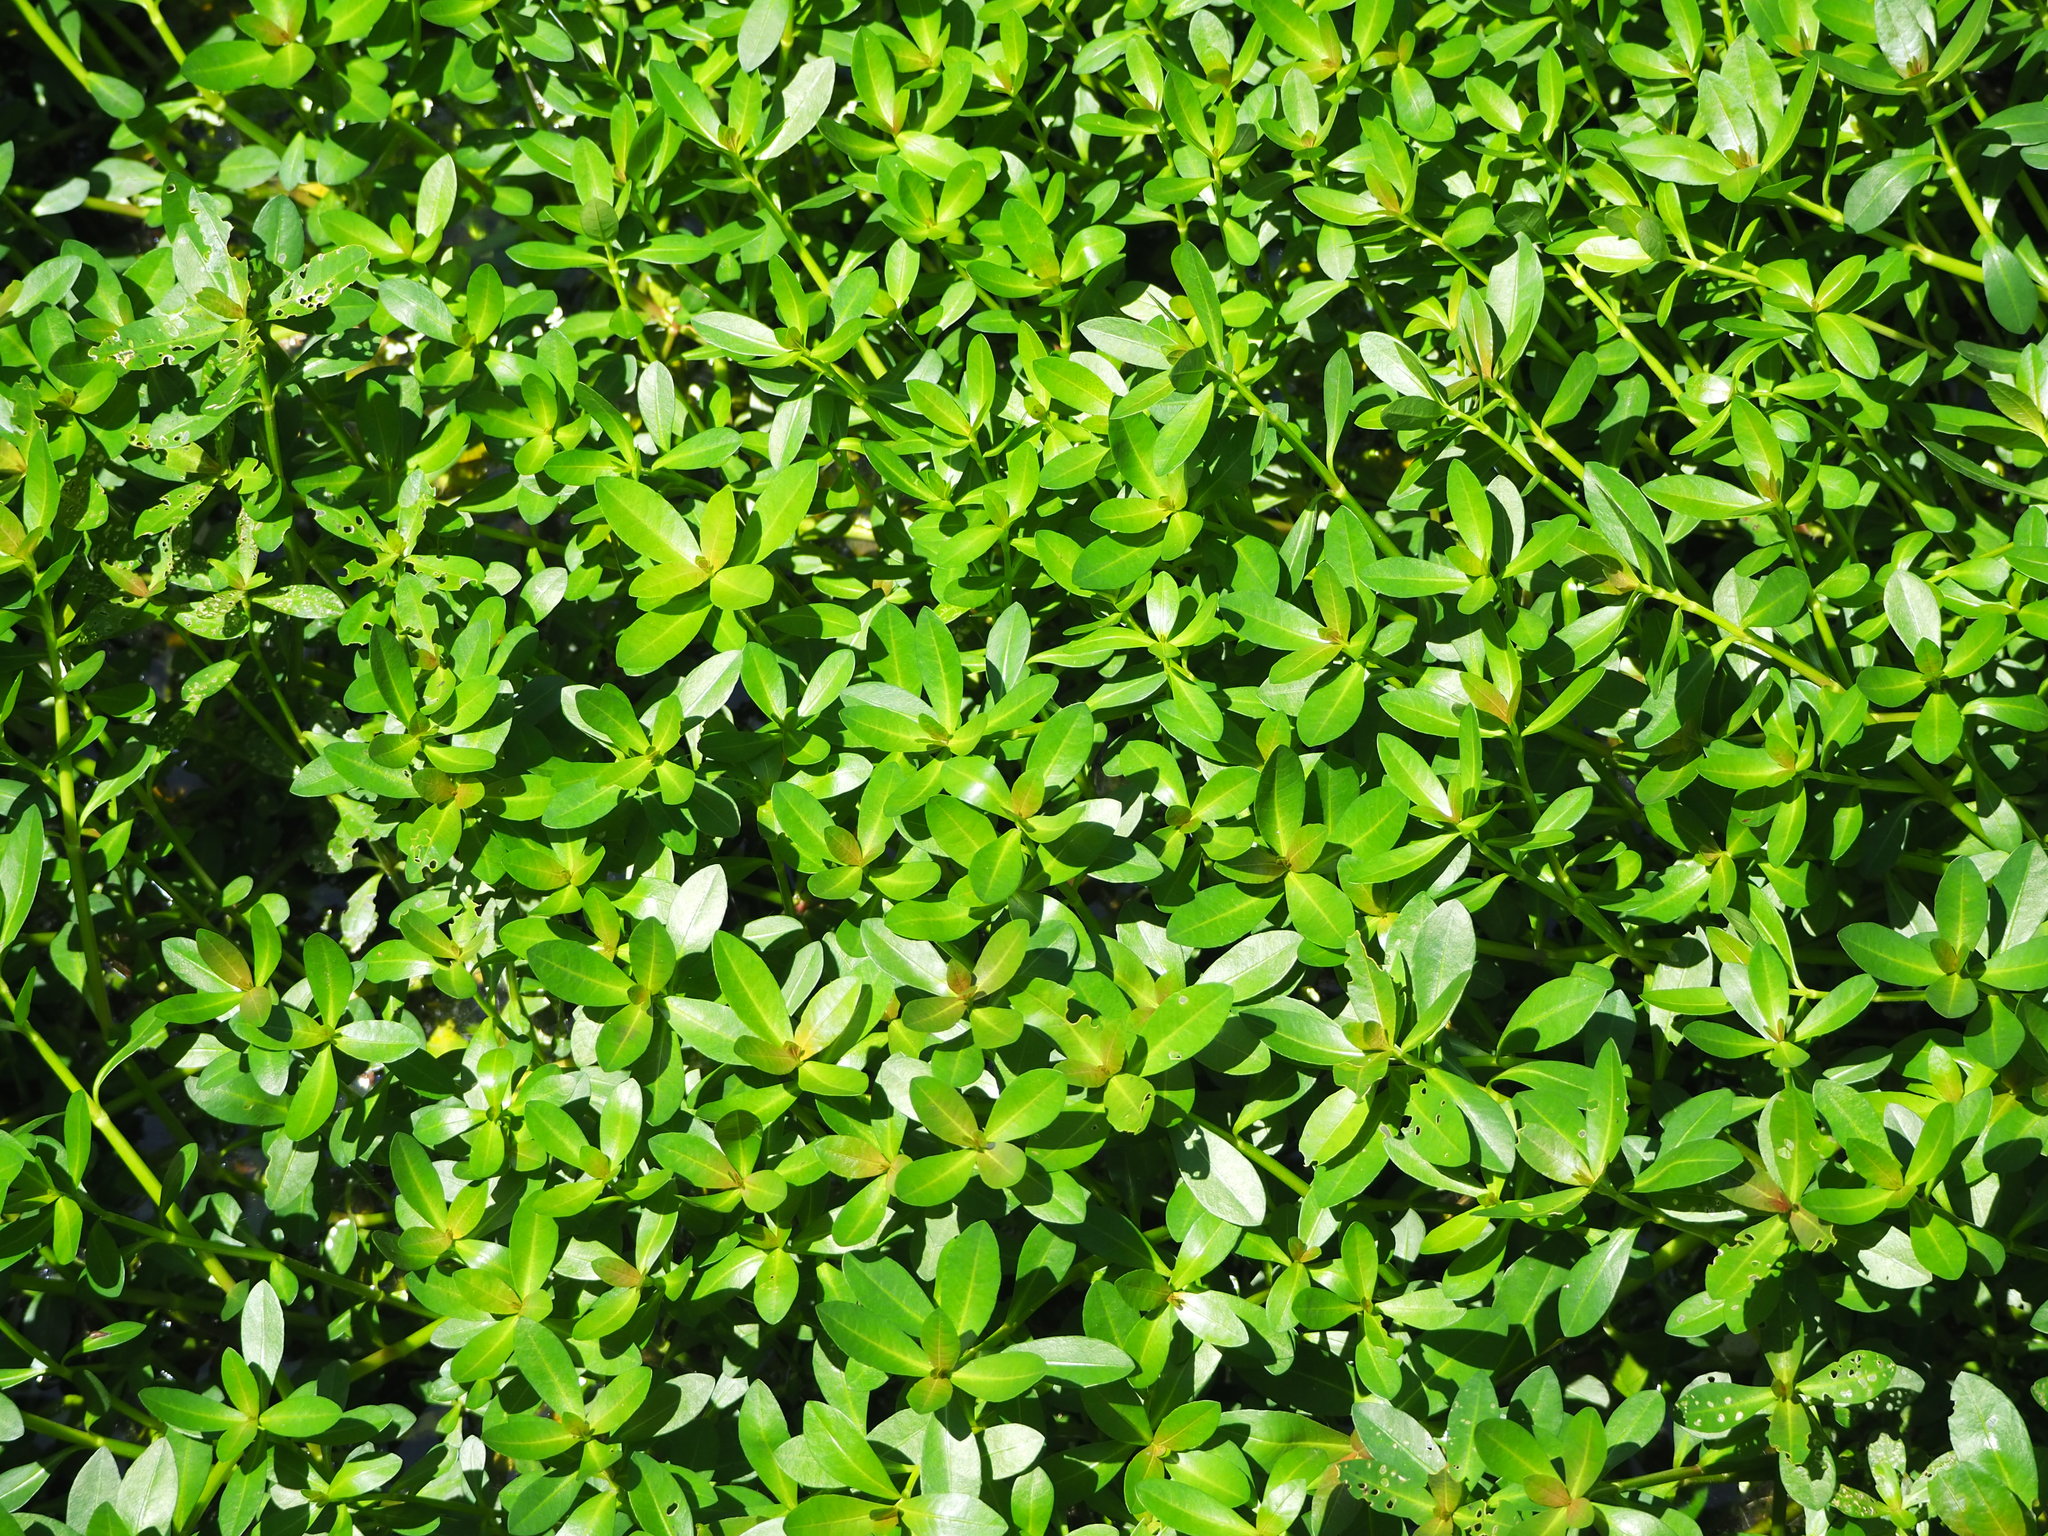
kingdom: Plantae
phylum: Tracheophyta
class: Magnoliopsida
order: Caryophyllales
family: Amaranthaceae
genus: Alternanthera
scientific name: Alternanthera philoxeroides
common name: Alligatorweed
